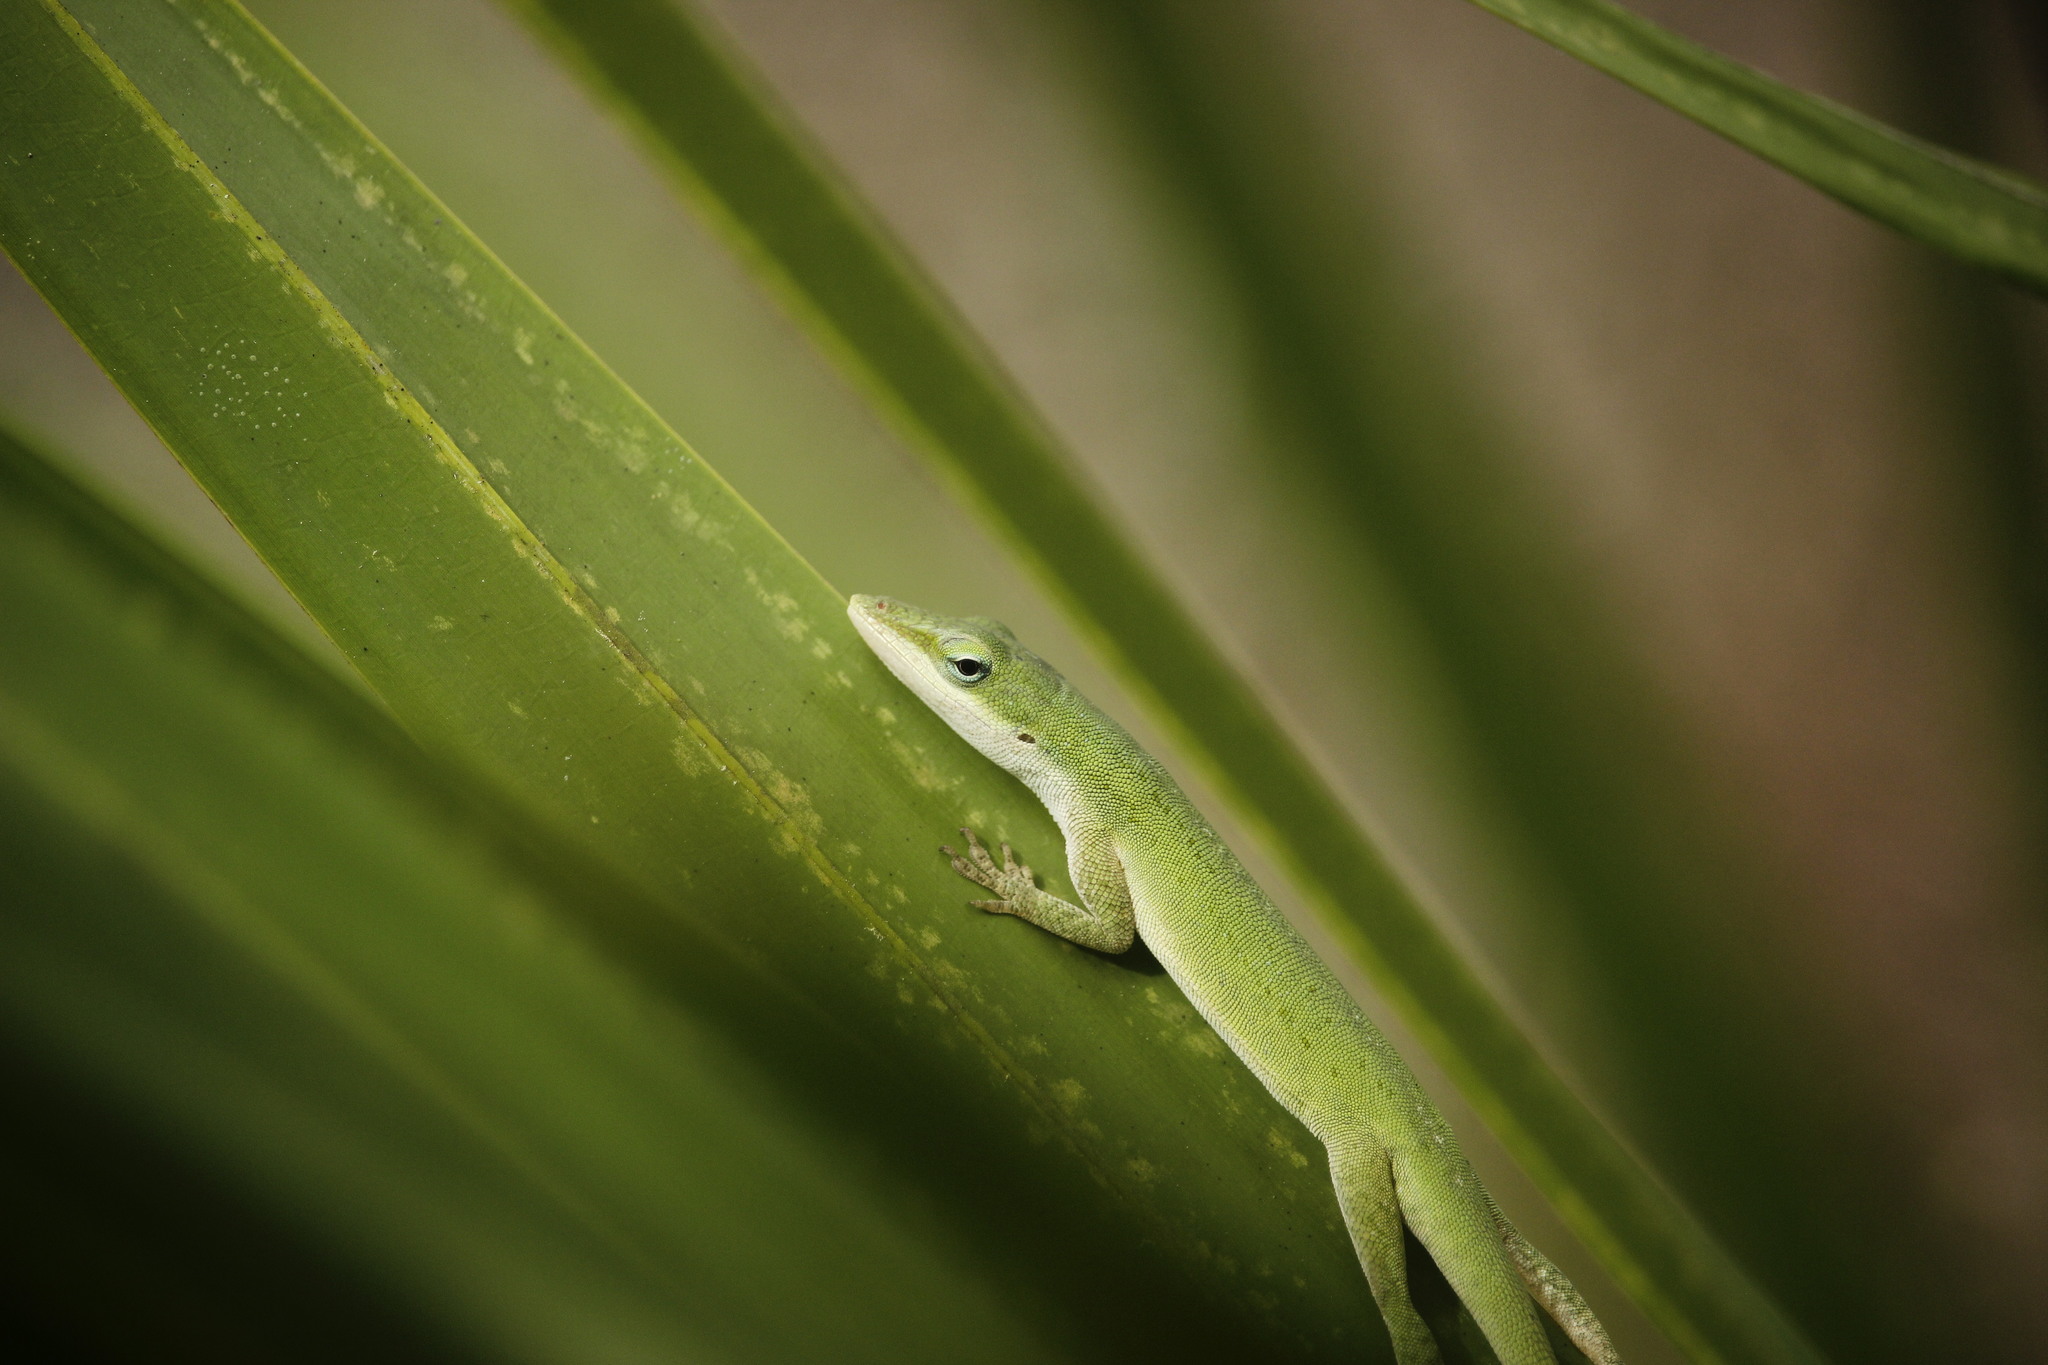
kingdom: Animalia
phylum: Chordata
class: Squamata
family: Dactyloidae
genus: Anolis
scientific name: Anolis carolinensis
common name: Green anole
